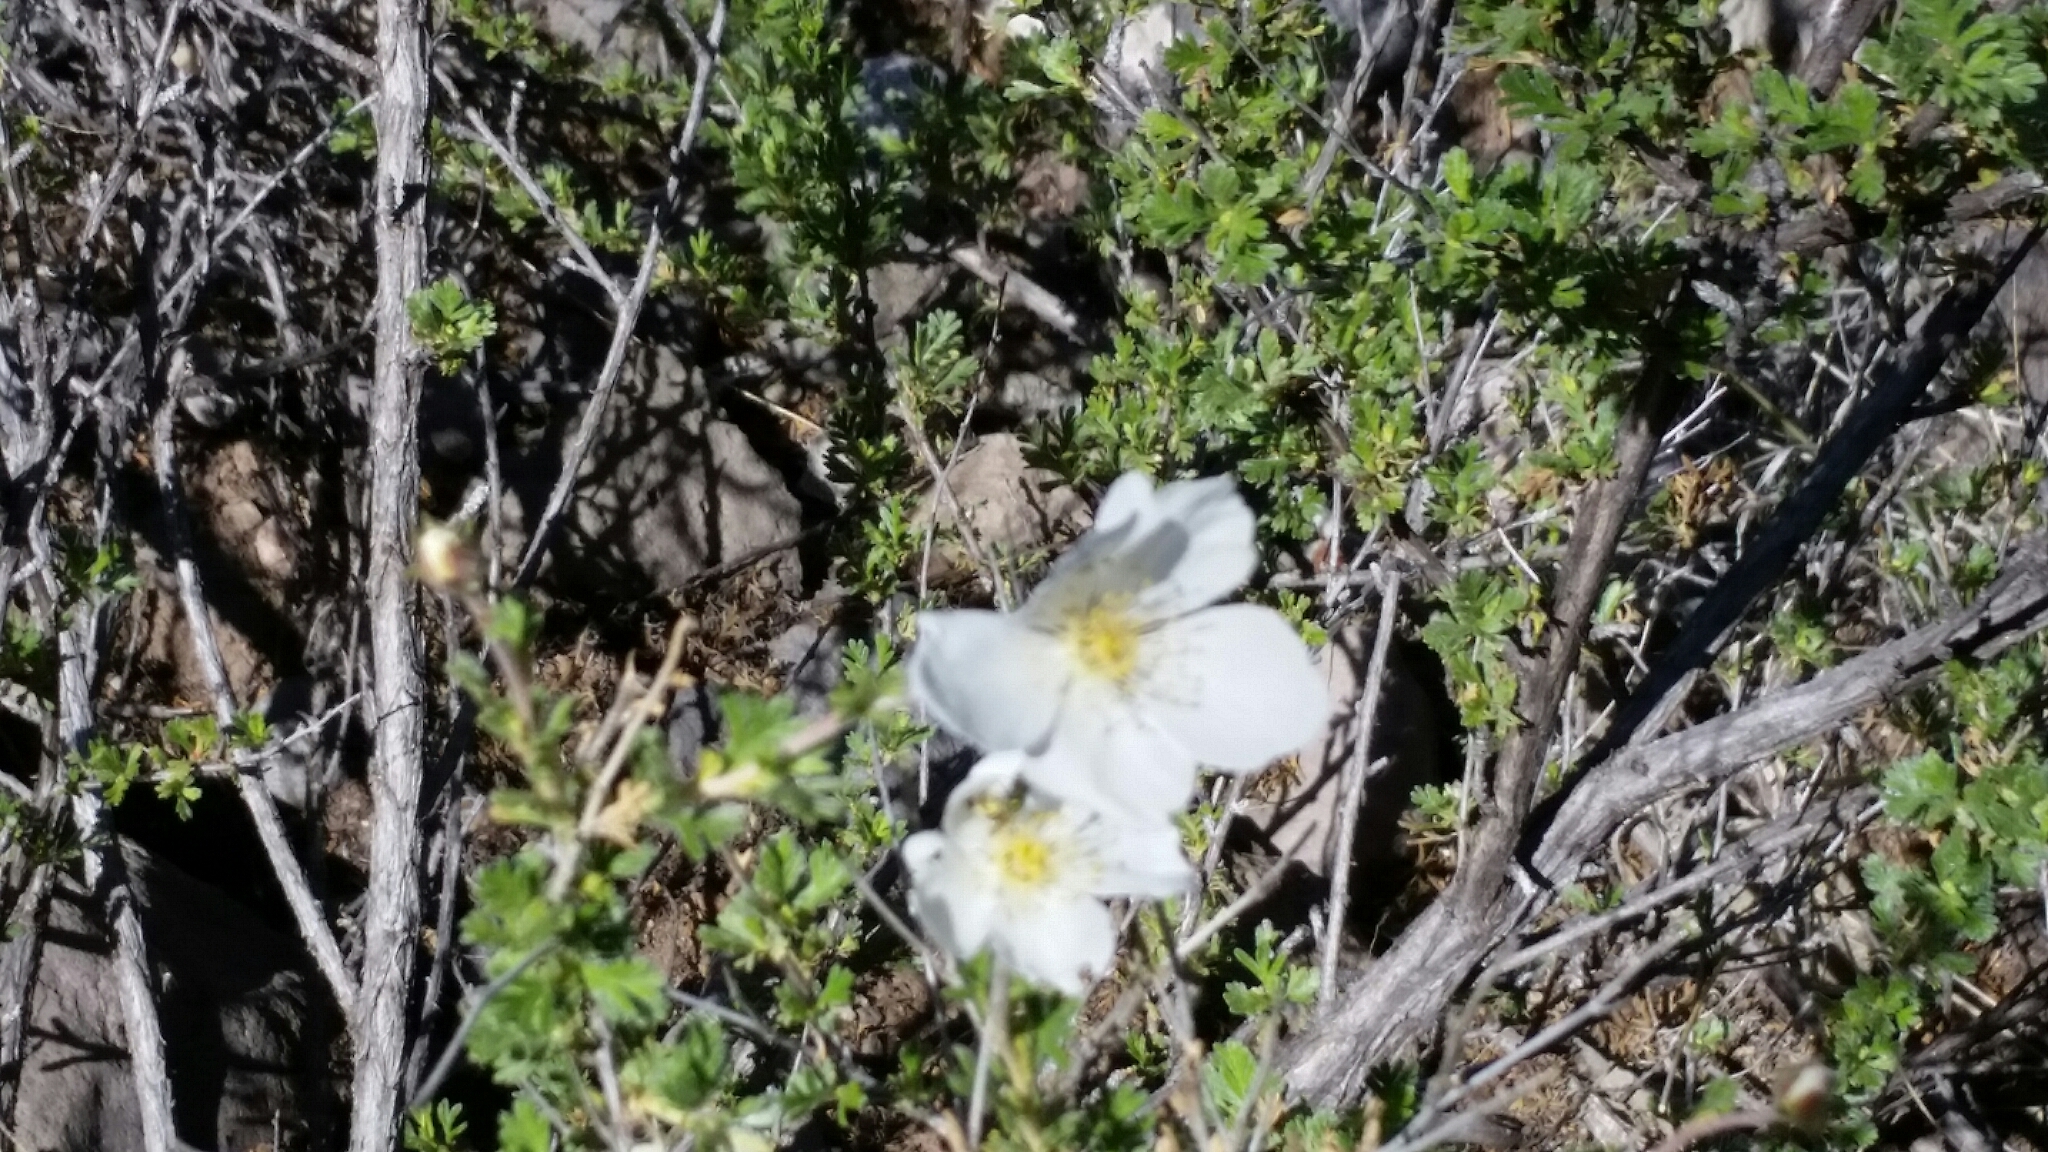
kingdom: Plantae
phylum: Tracheophyta
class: Magnoliopsida
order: Rosales
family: Rosaceae
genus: Fallugia
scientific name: Fallugia paradoxa
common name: Apache-plume
